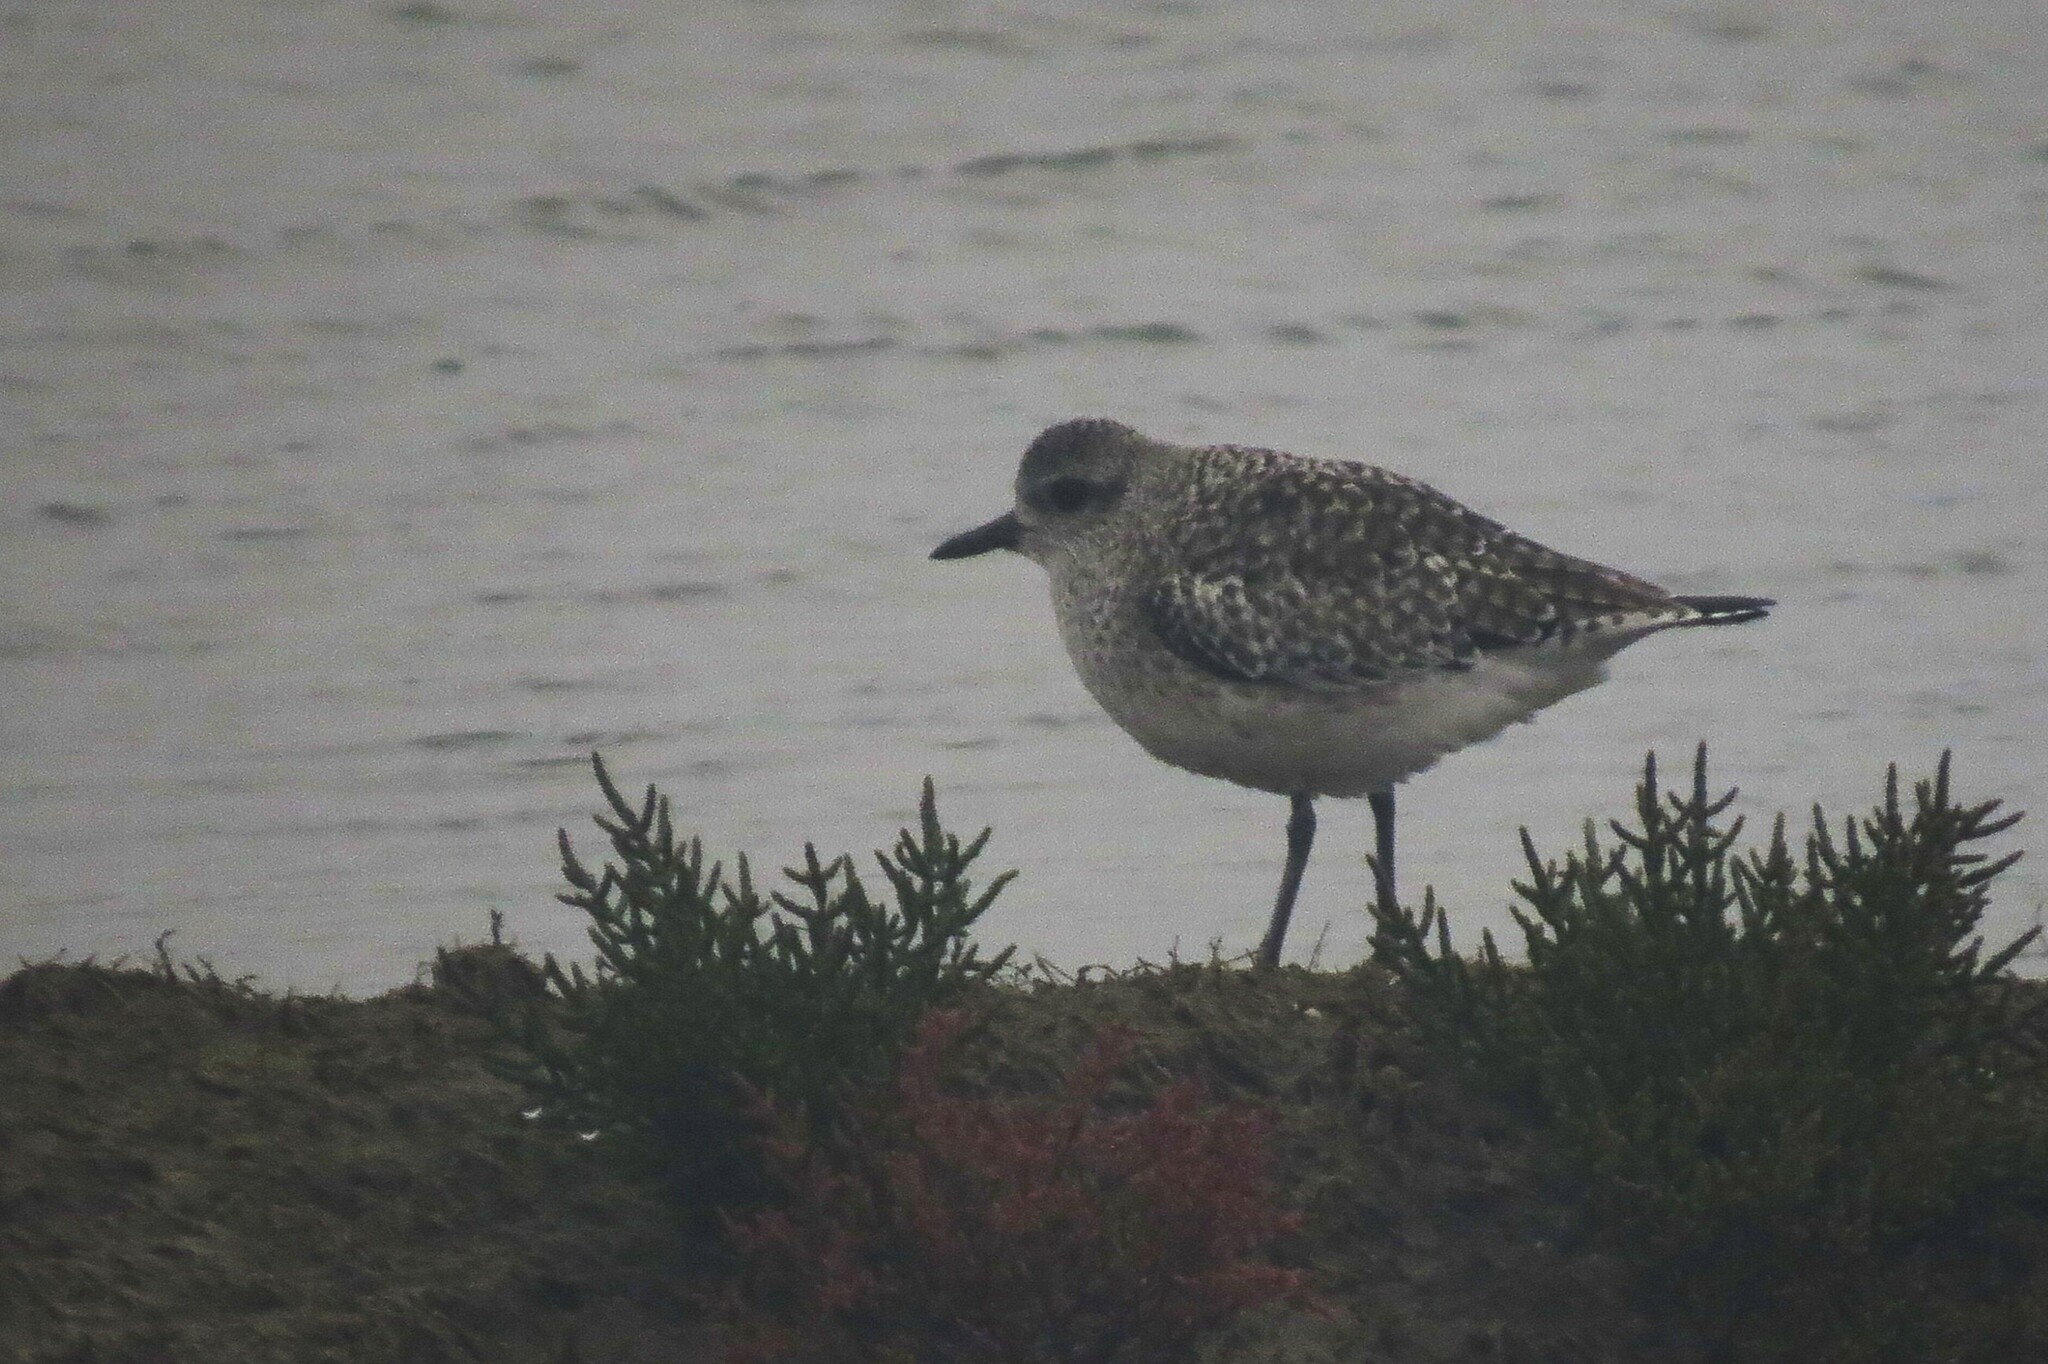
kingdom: Animalia
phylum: Chordata
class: Aves
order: Charadriiformes
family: Charadriidae
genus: Pluvialis
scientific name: Pluvialis squatarola
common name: Grey plover
